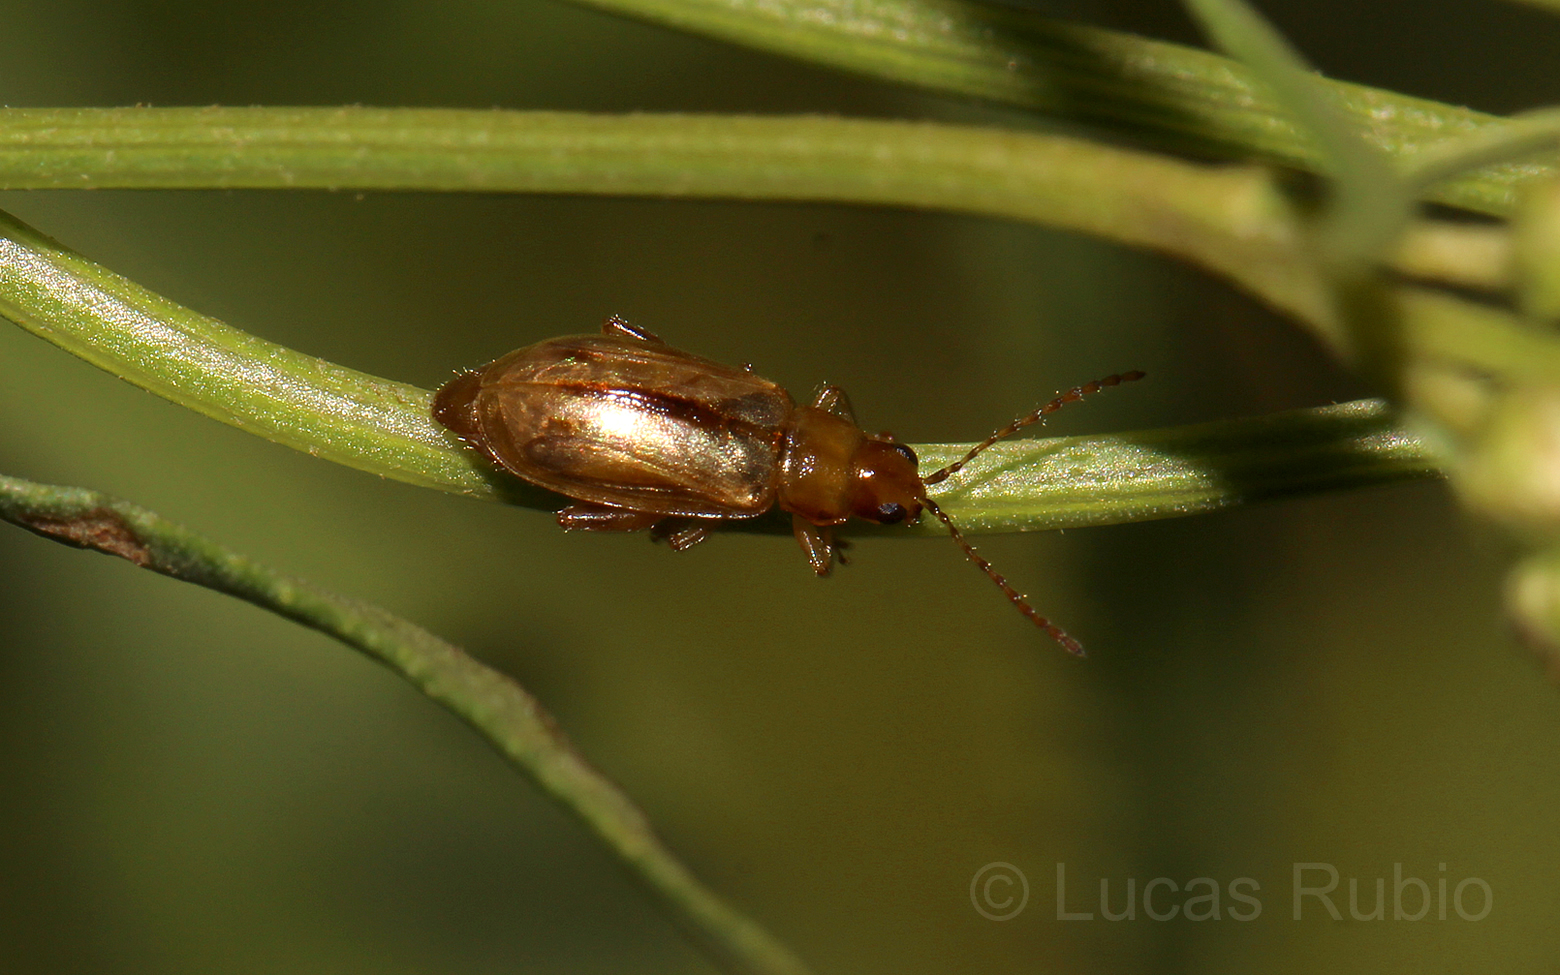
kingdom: Animalia
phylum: Arthropoda
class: Insecta
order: Coleoptera
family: Chrysomelidae
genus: Systena
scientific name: Systena
